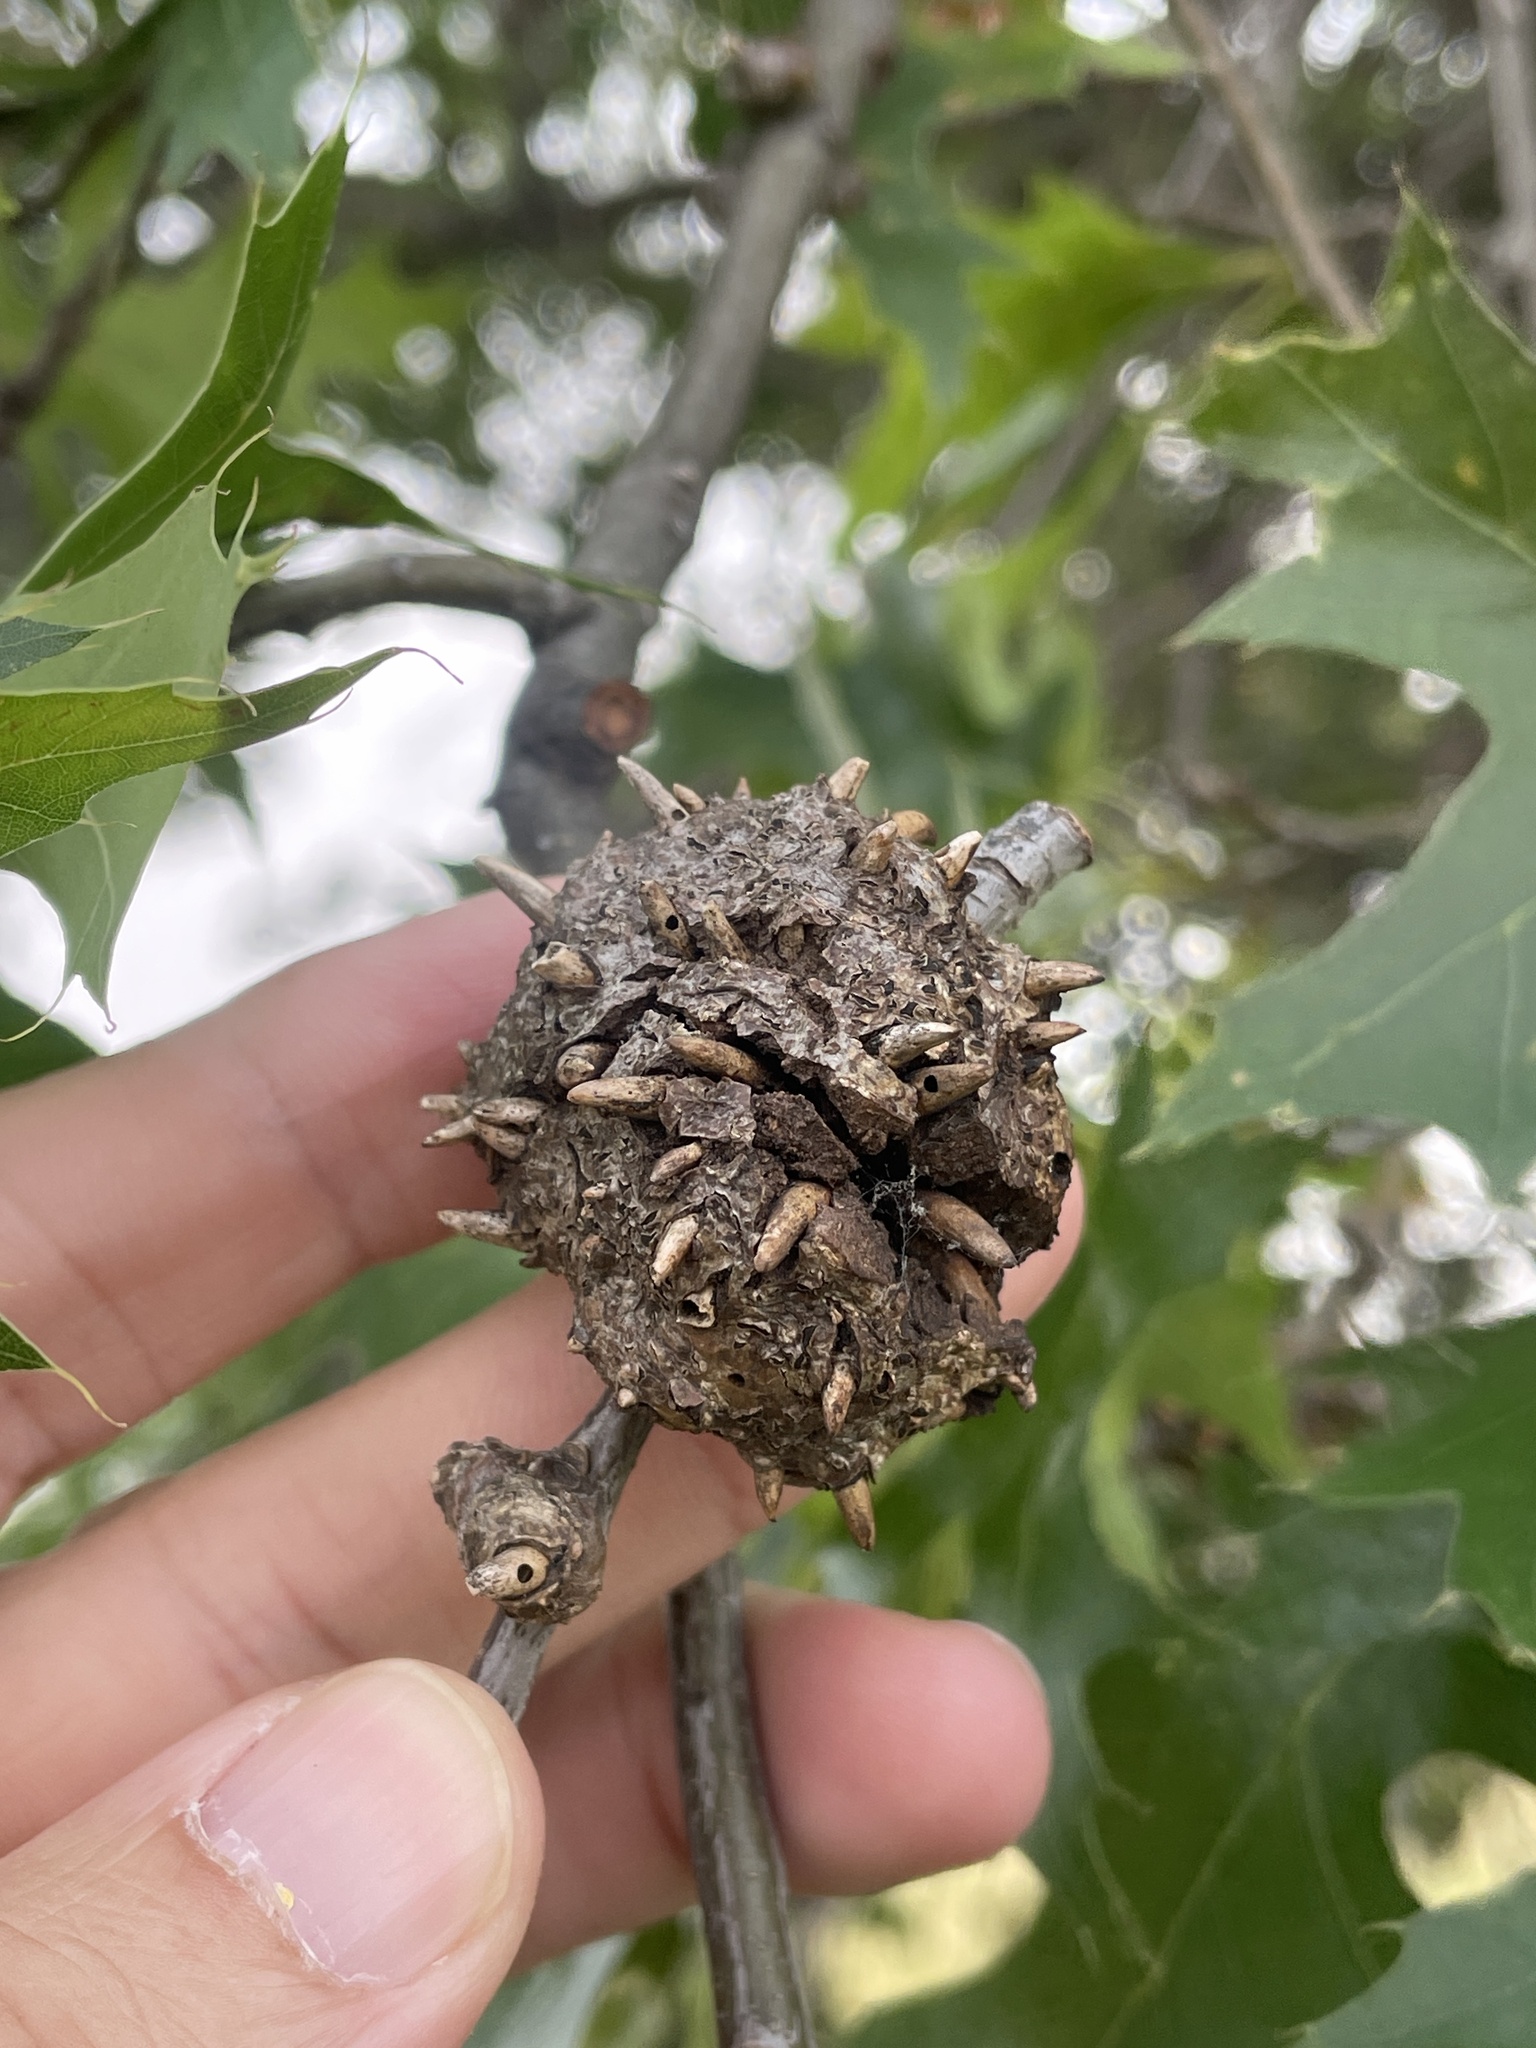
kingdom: Animalia
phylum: Arthropoda
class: Insecta
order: Hymenoptera
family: Cynipidae
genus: Callirhytis
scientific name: Callirhytis
